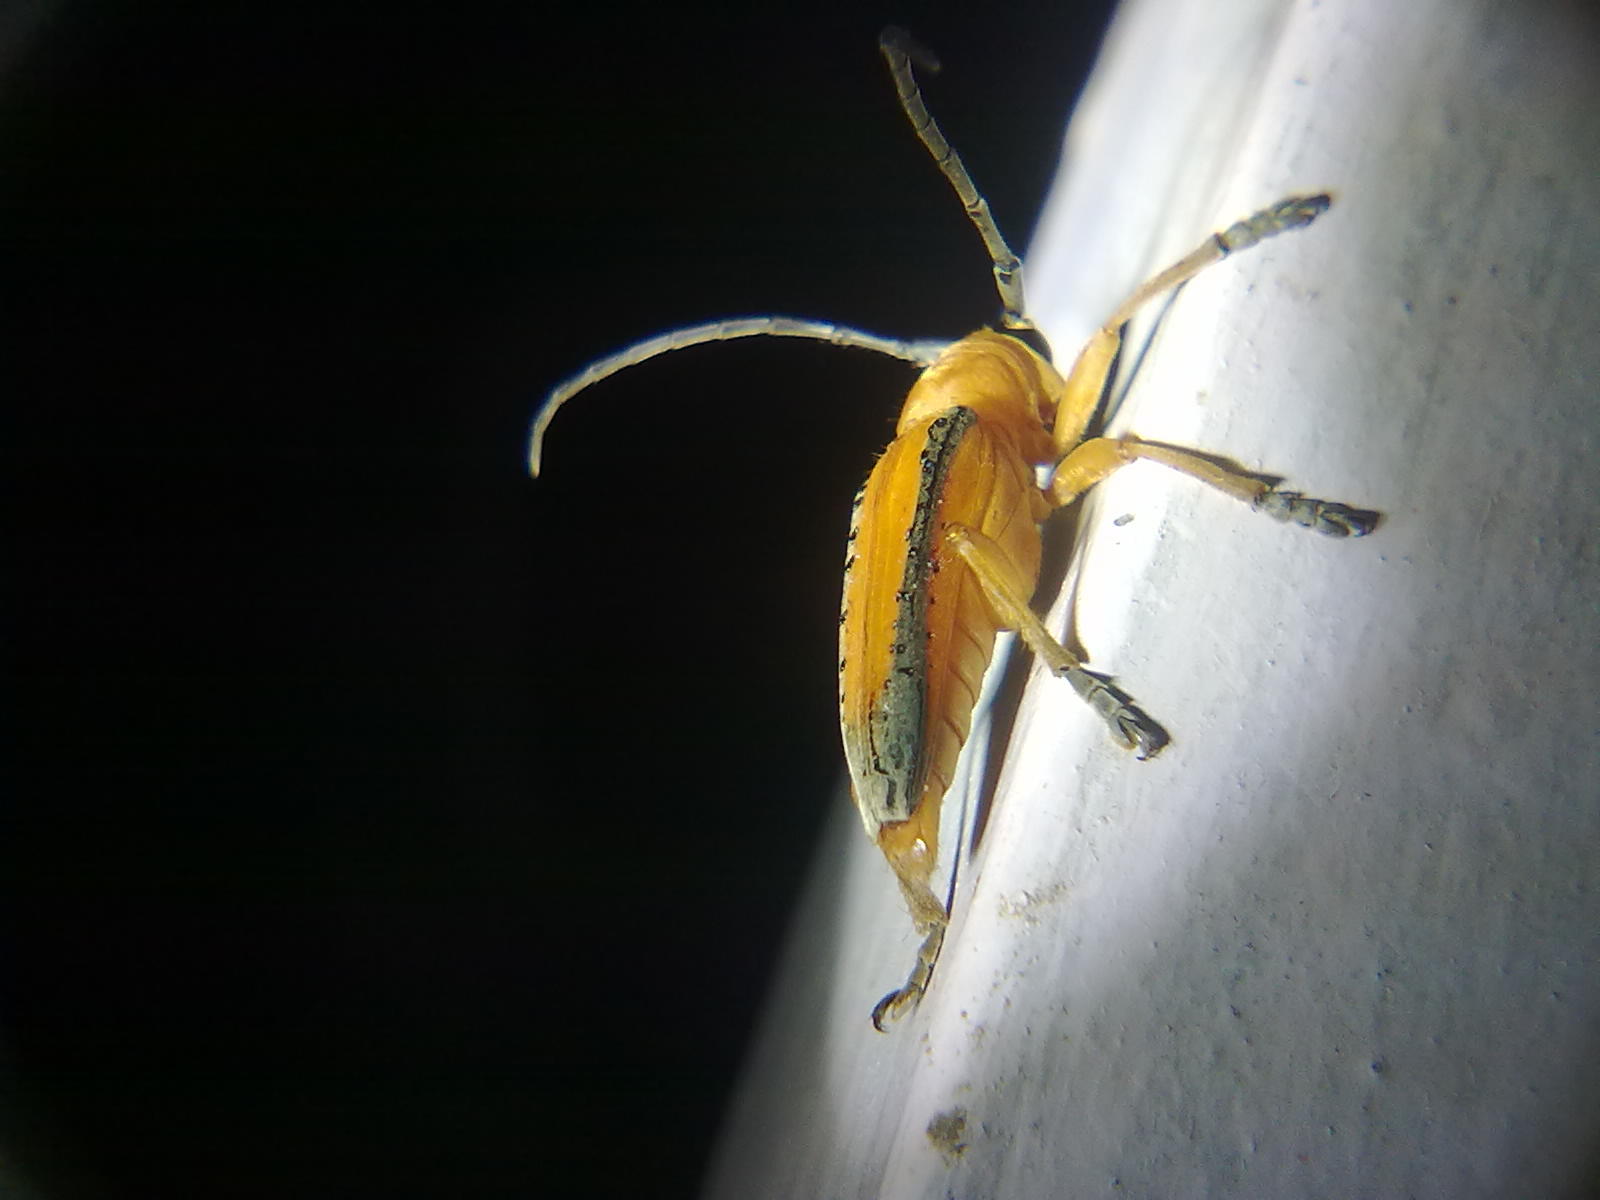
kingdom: Animalia
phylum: Arthropoda
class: Insecta
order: Coleoptera
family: Cerambycidae
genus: Stibara
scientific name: Stibara nigrovittata
